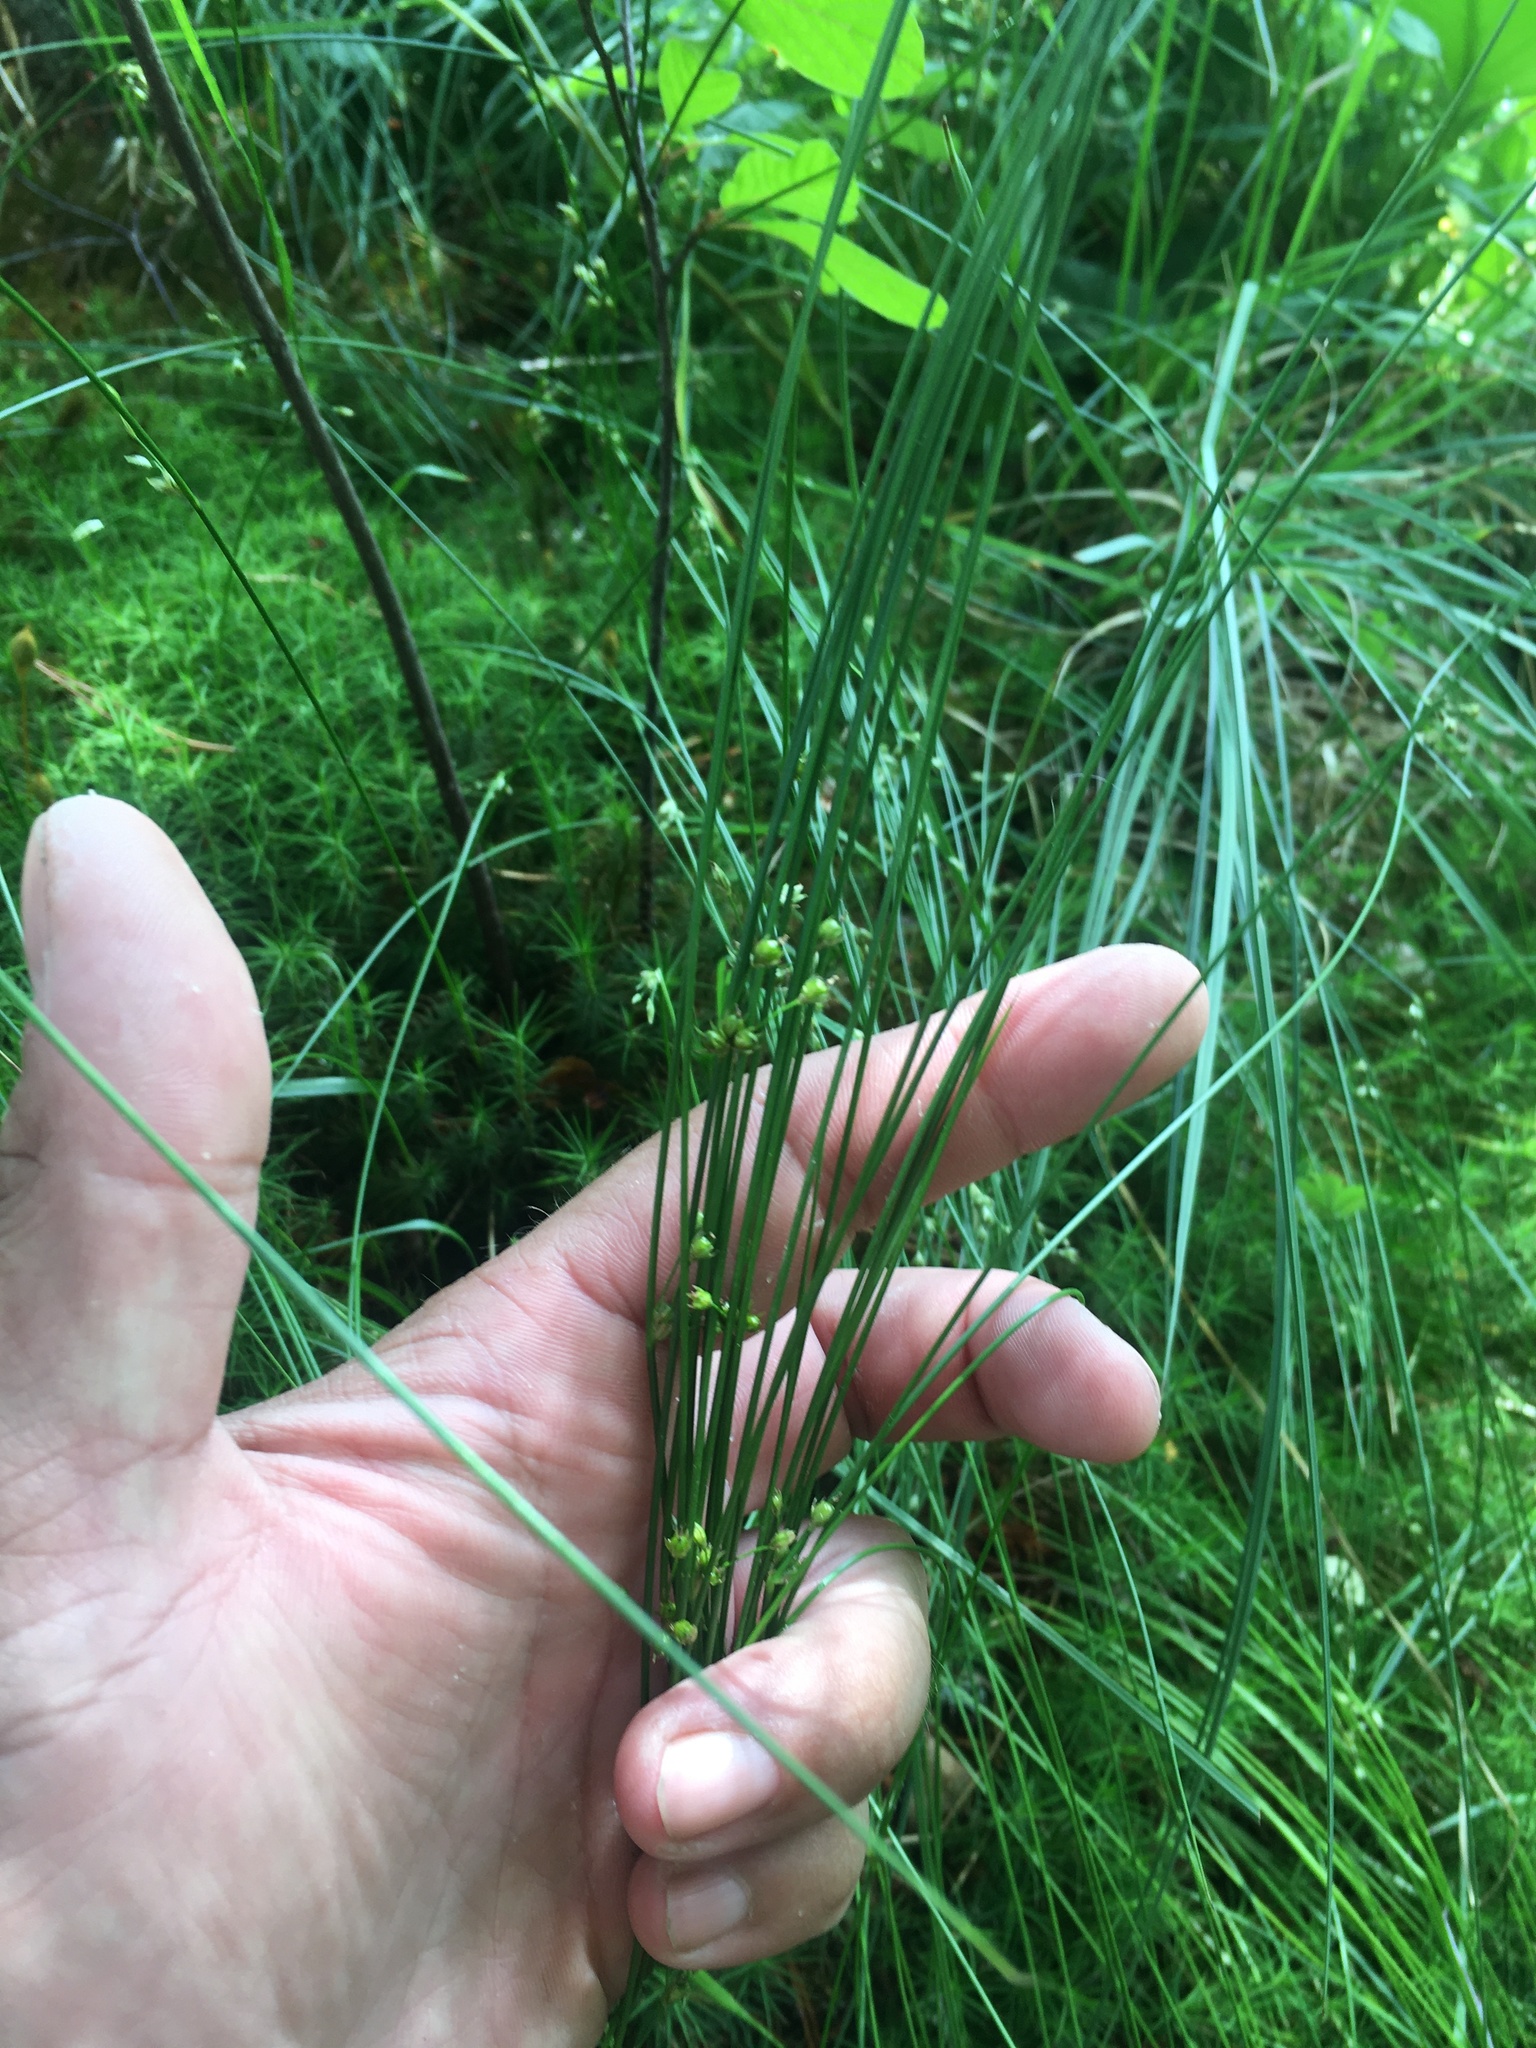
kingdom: Plantae
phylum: Tracheophyta
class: Liliopsida
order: Poales
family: Juncaceae
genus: Juncus
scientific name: Juncus filiformis
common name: Thread rush
